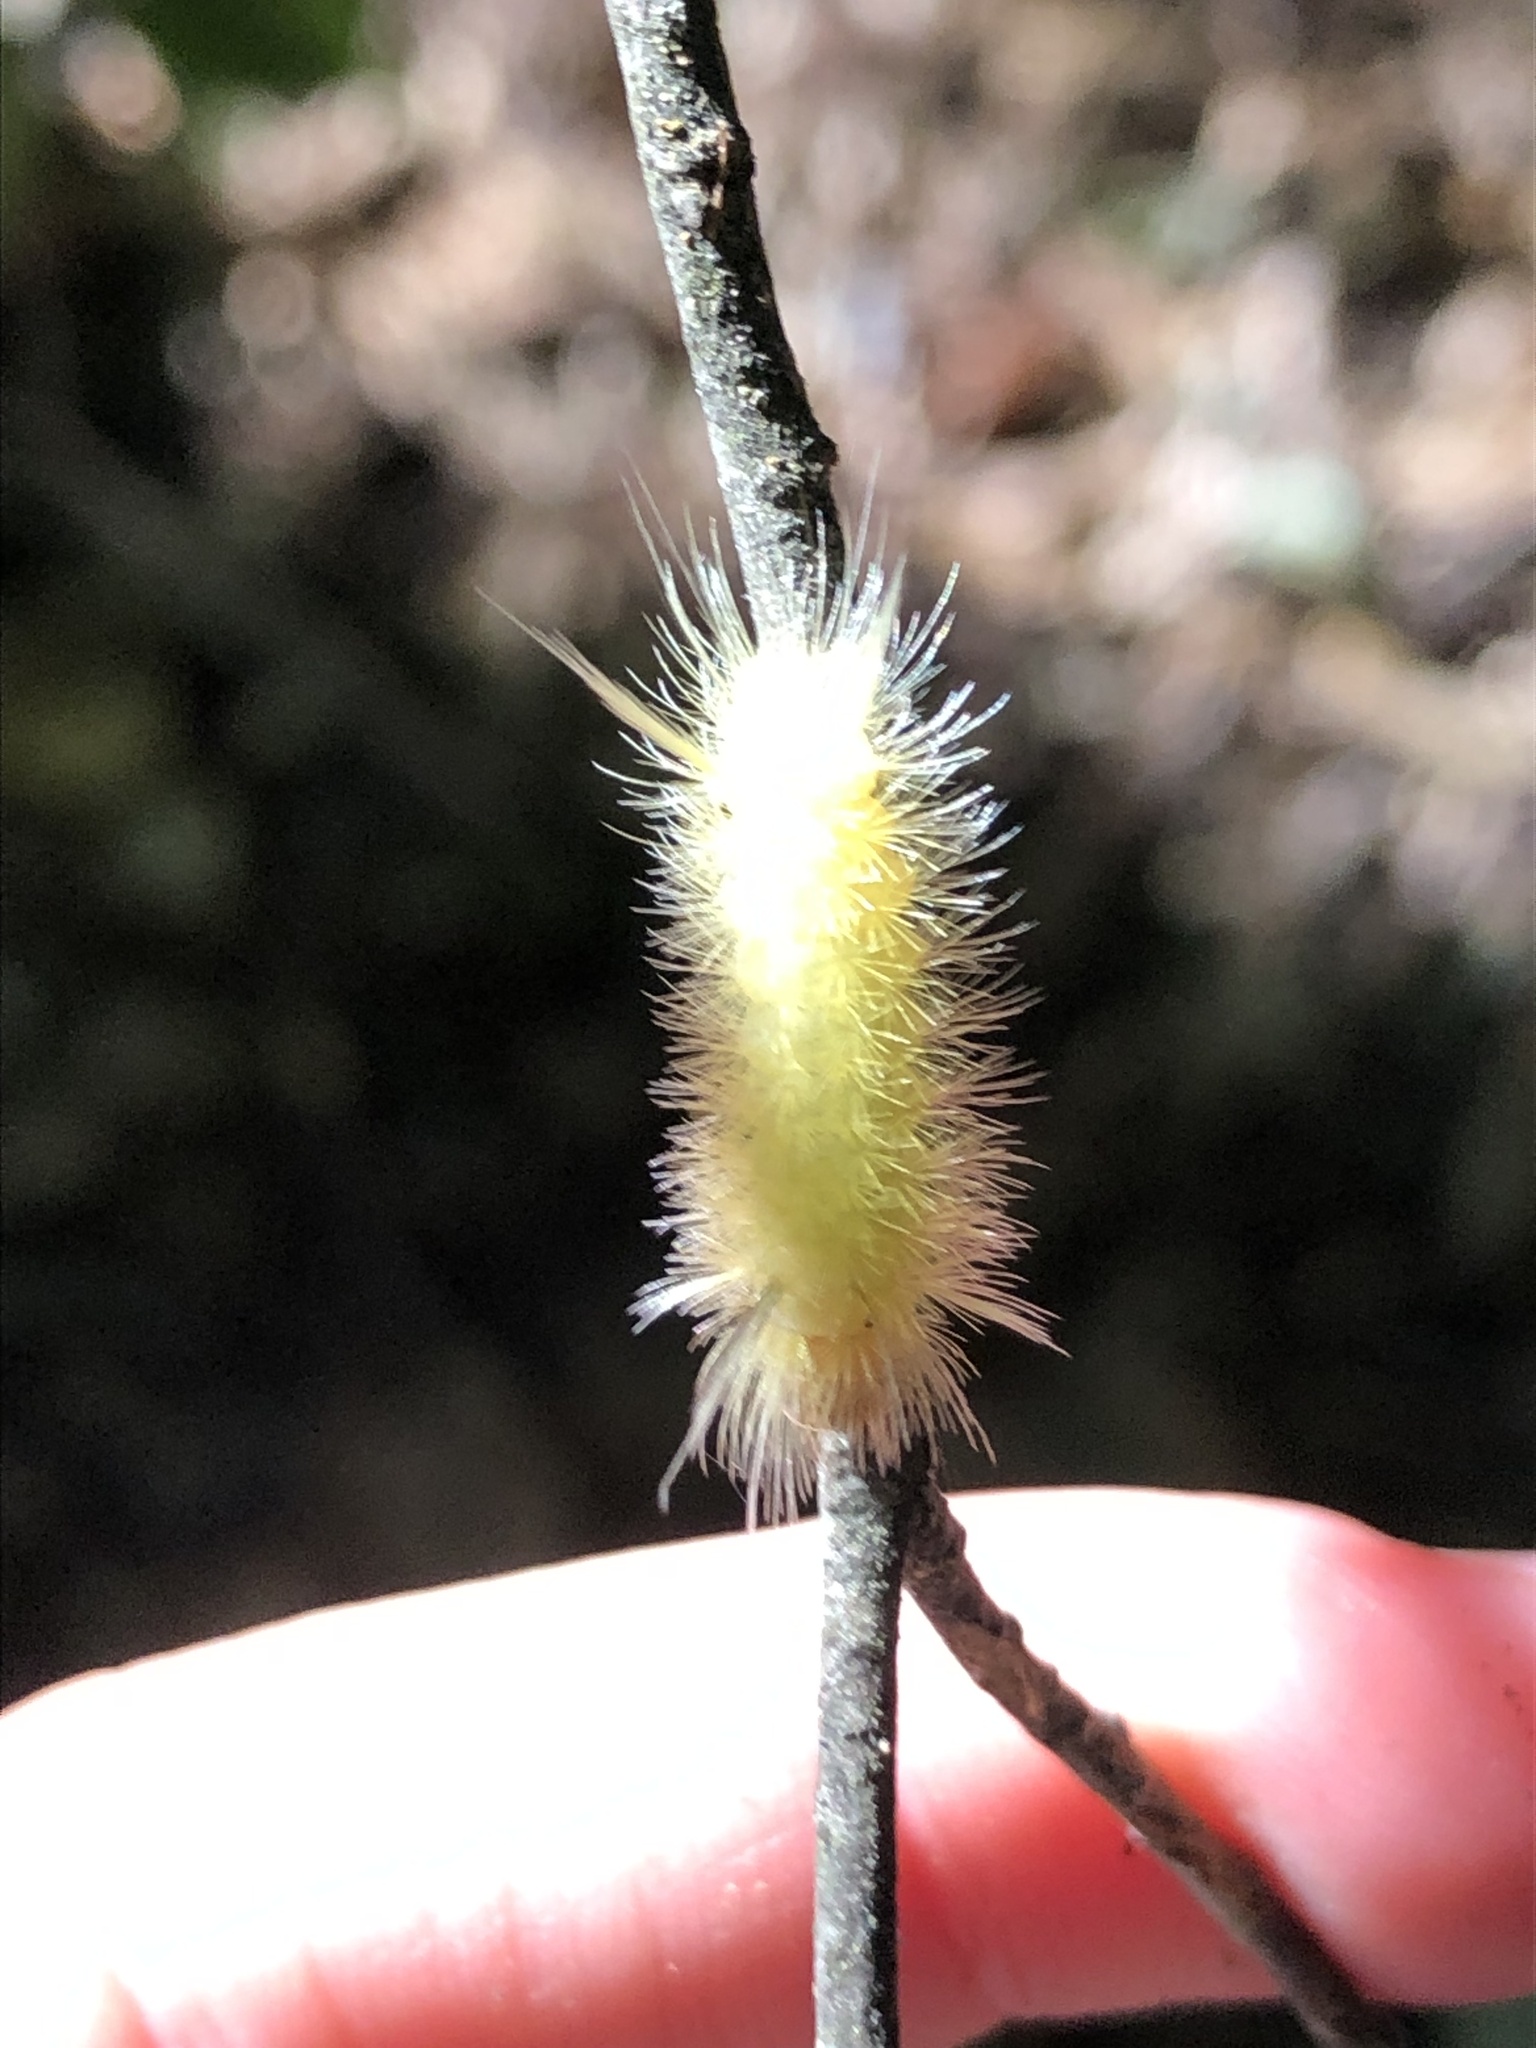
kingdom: Animalia
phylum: Arthropoda
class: Insecta
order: Lepidoptera
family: Erebidae
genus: Halysidota
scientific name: Halysidota harrisii
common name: Sycamore tussock moth
